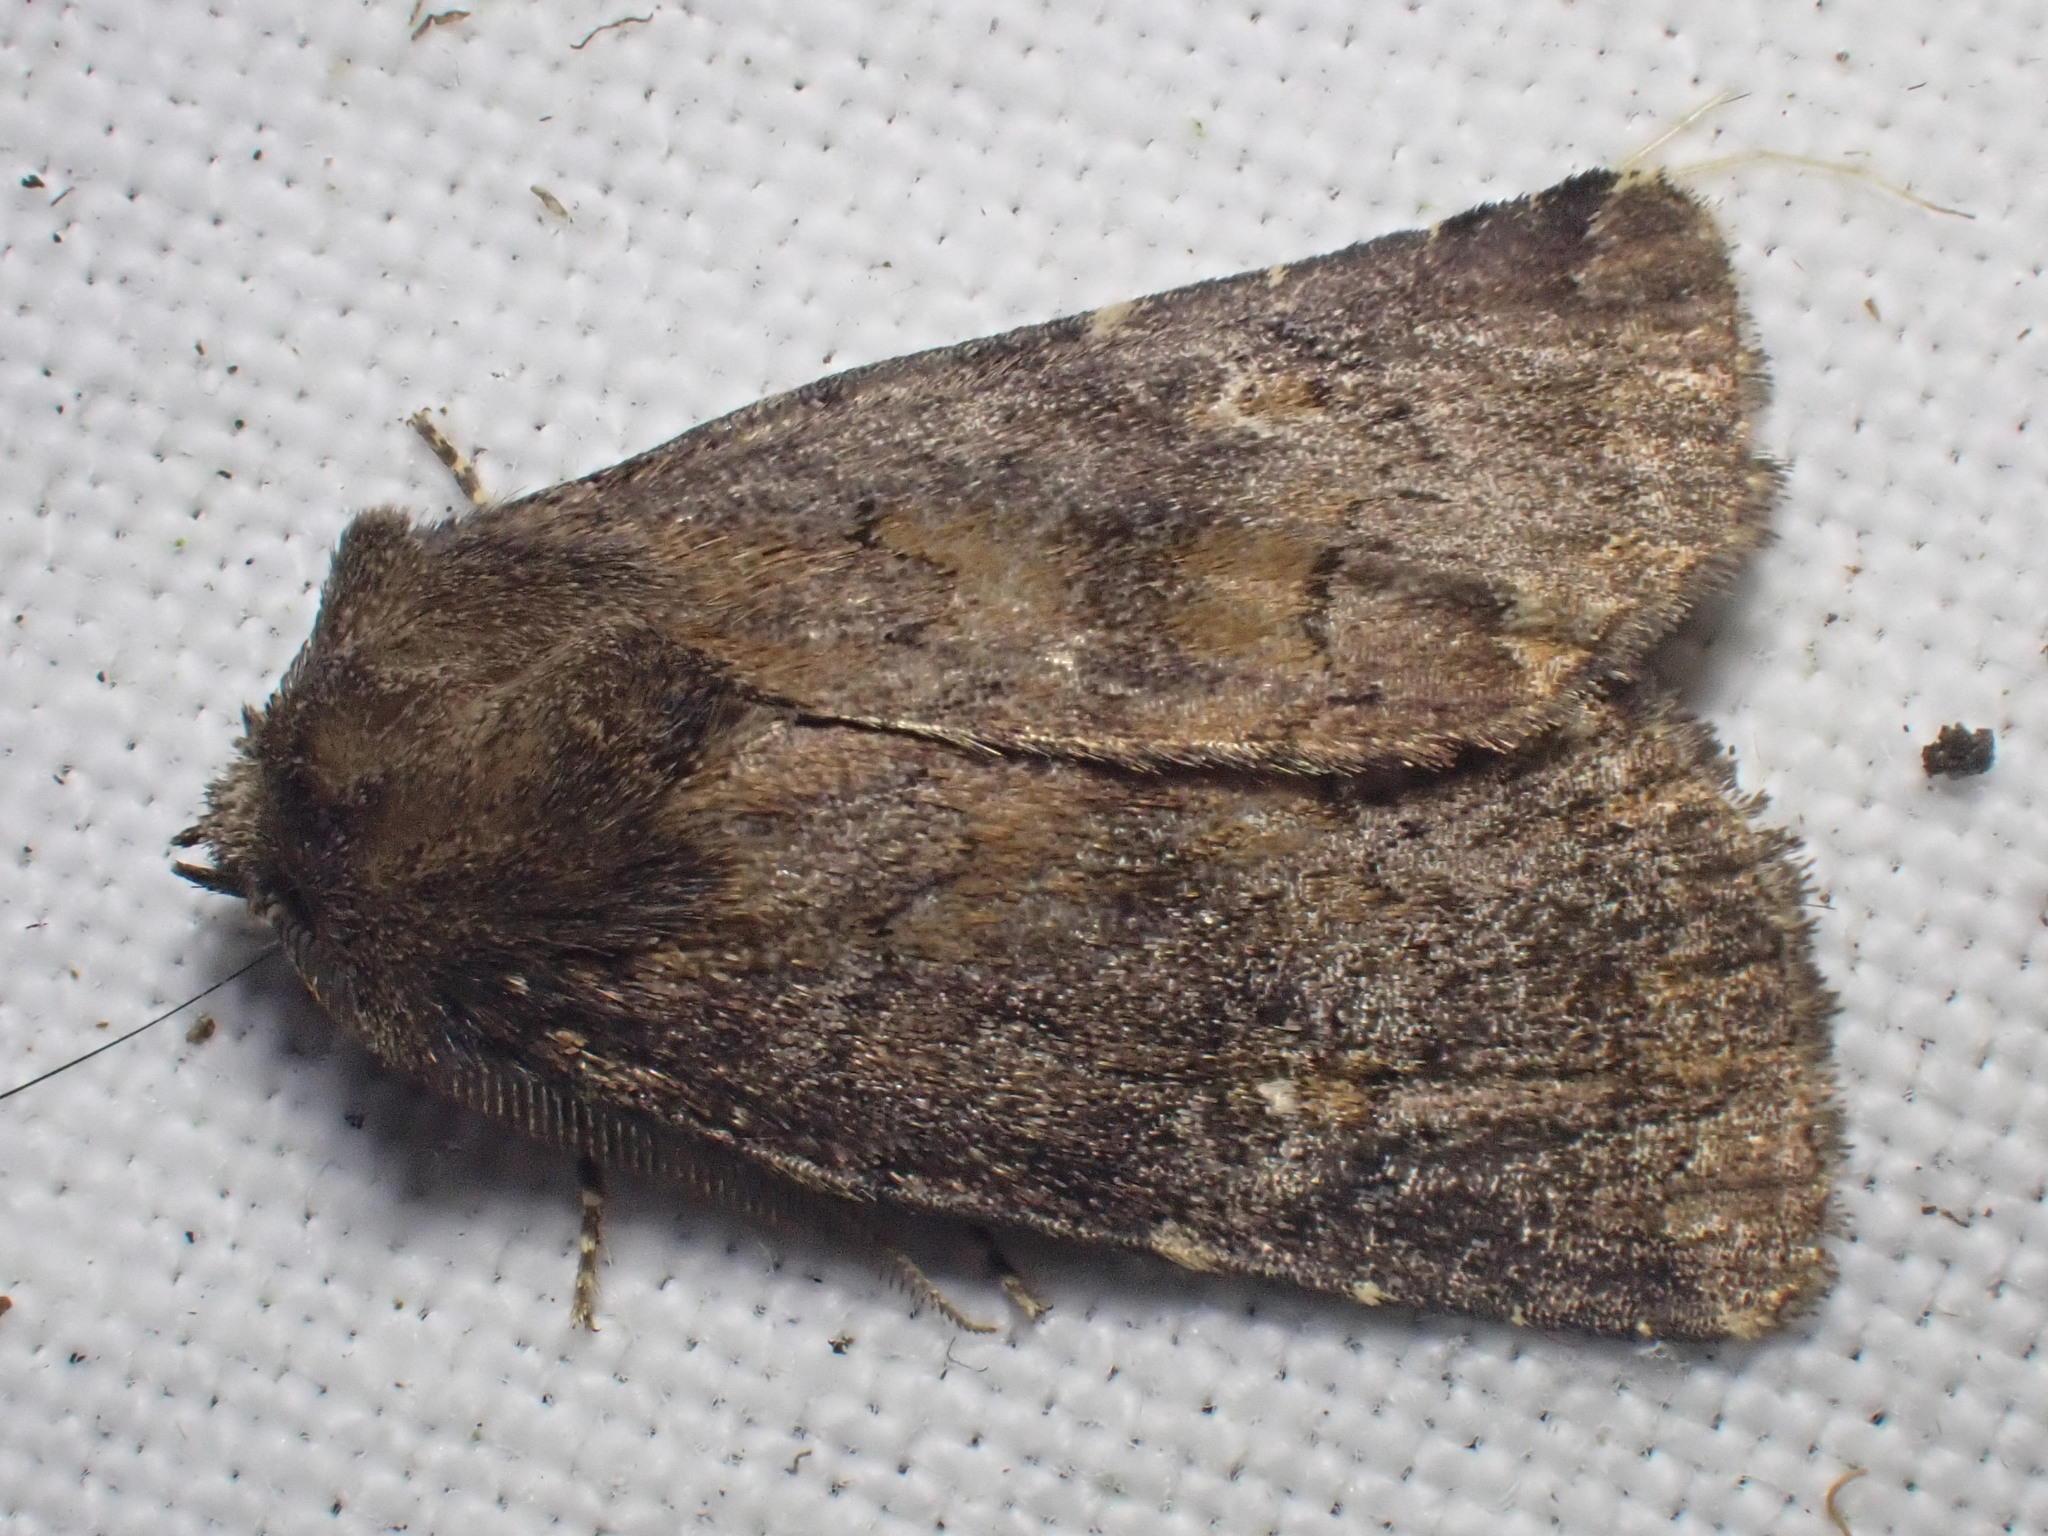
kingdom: Animalia
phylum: Arthropoda
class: Insecta
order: Lepidoptera
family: Noctuidae
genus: Charanyca
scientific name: Charanyca ferruginea
